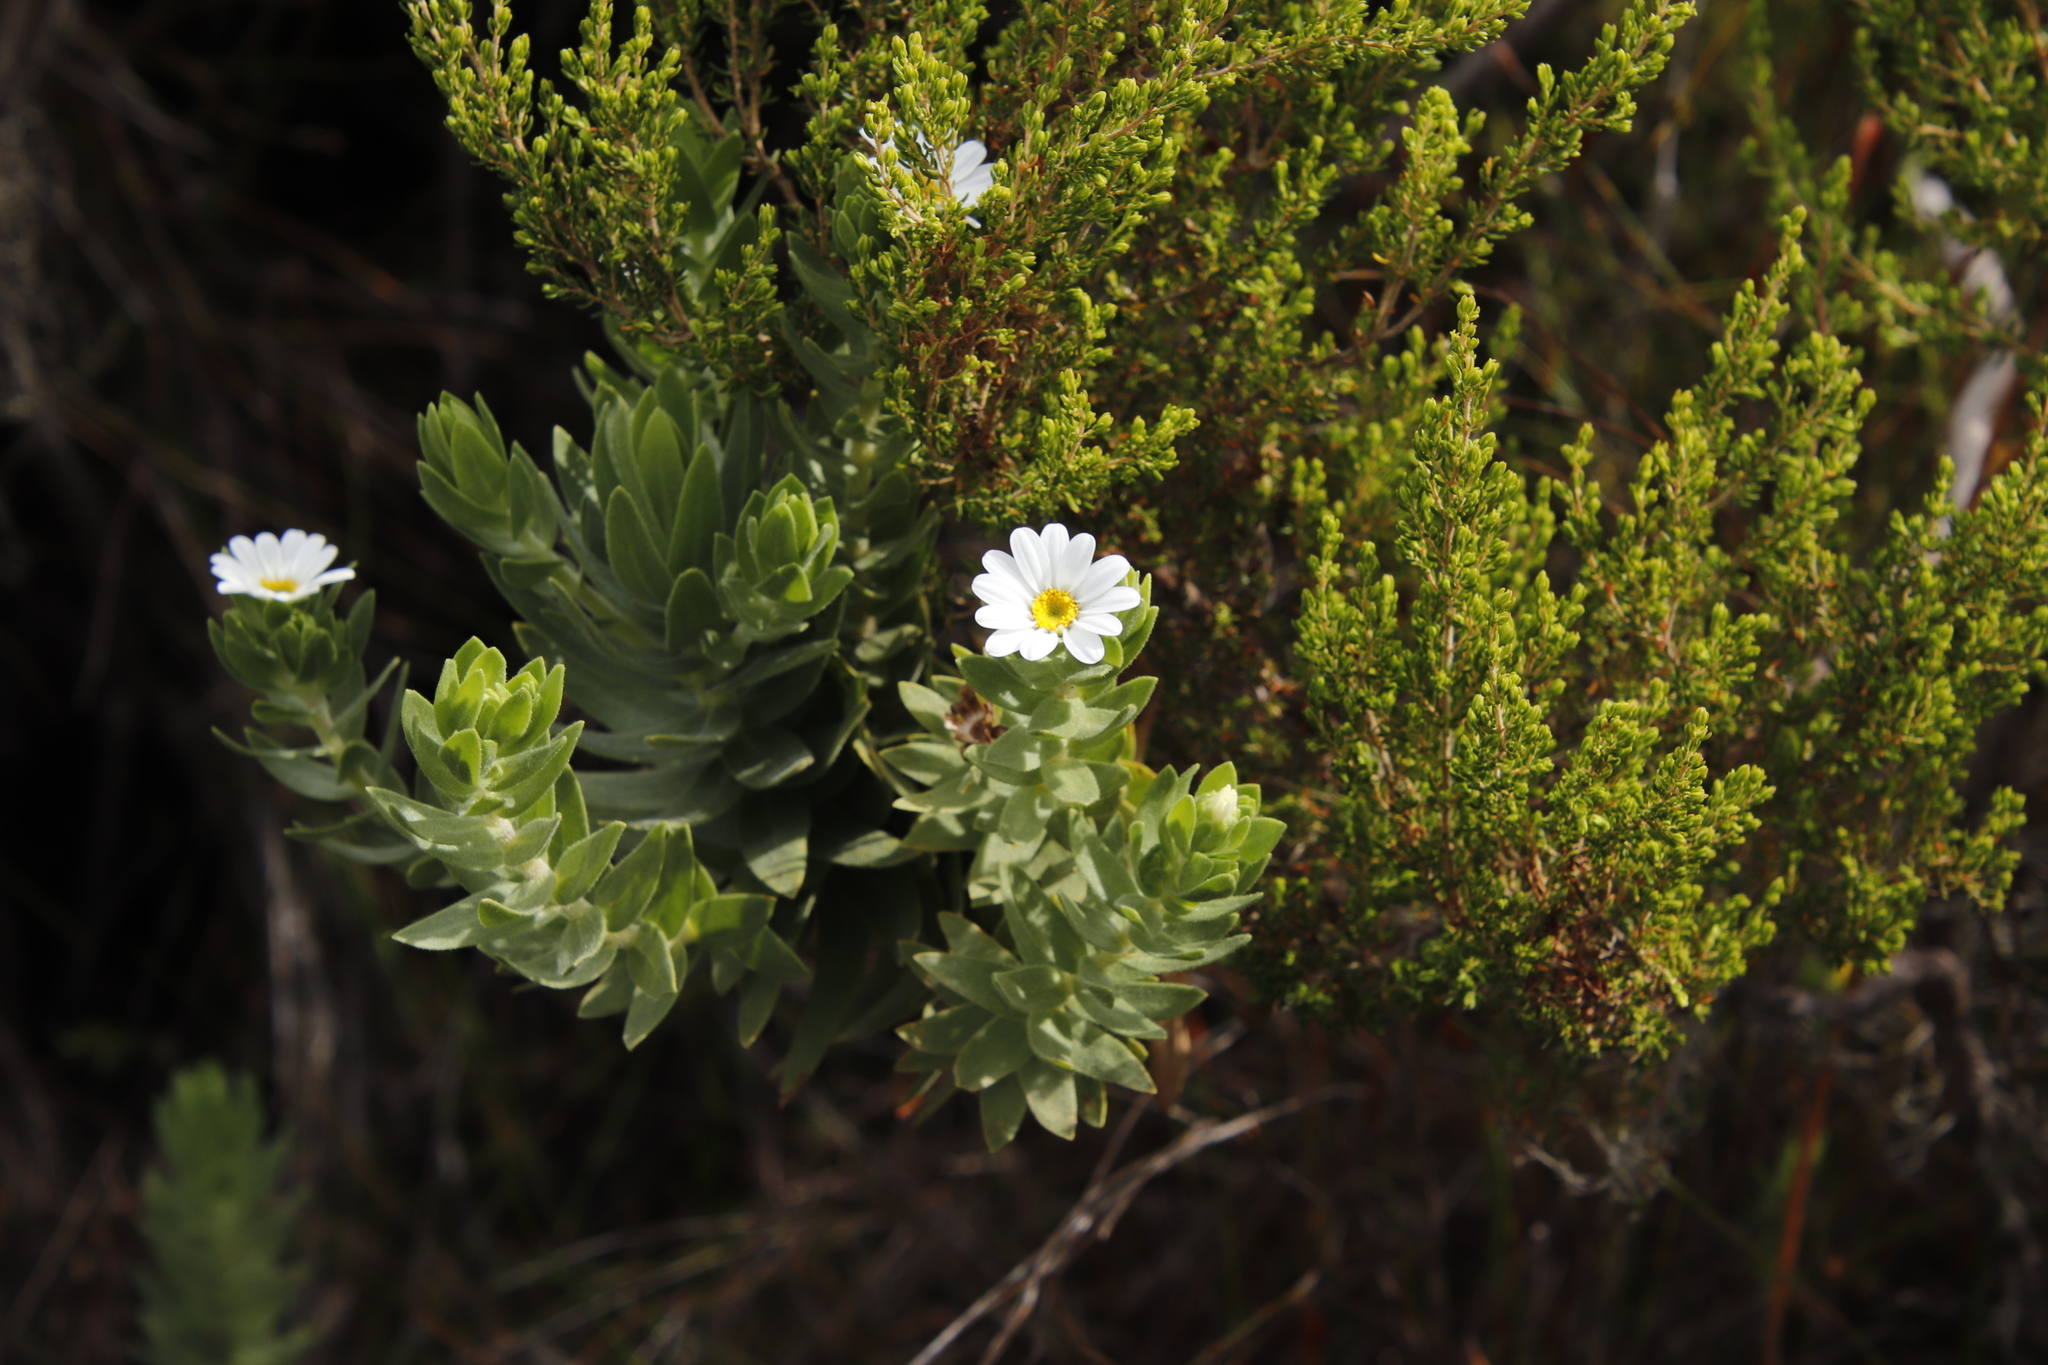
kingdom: Plantae
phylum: Tracheophyta
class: Magnoliopsida
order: Asterales
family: Asteraceae
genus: Osmitopsis
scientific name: Osmitopsis asteriscoides
